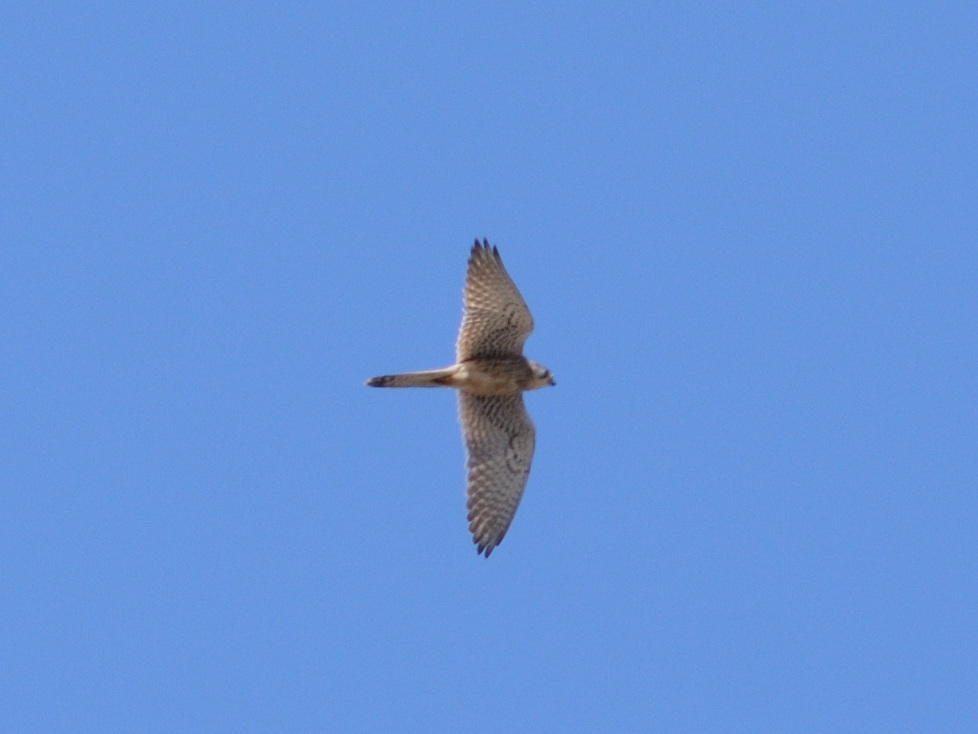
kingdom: Animalia
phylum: Chordata
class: Aves
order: Falconiformes
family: Falconidae
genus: Falco
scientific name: Falco tinnunculus
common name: Common kestrel
